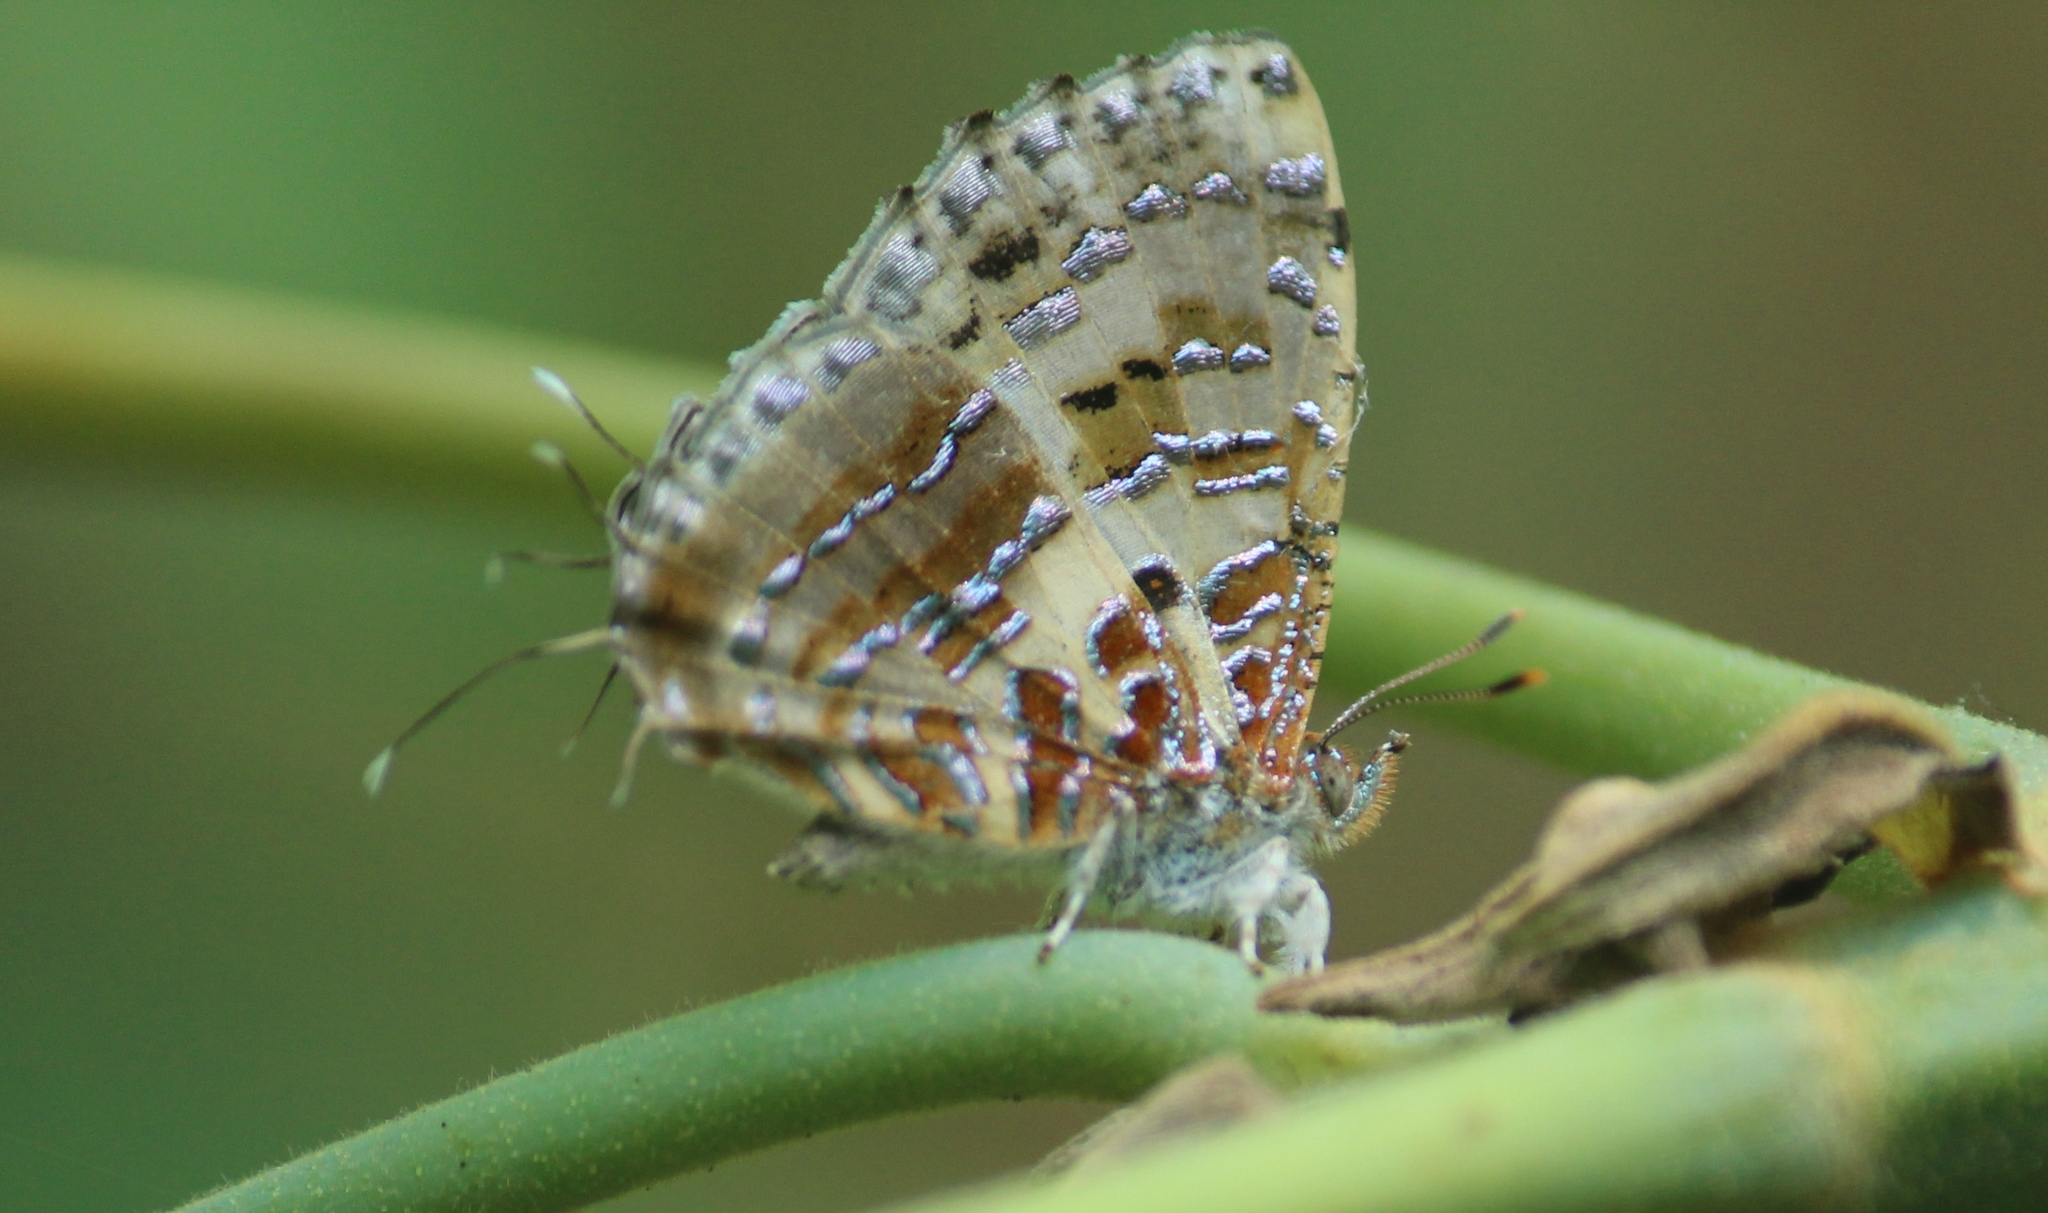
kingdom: Animalia
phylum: Arthropoda
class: Insecta
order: Lepidoptera
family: Lycaenidae
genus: Catapaecilma
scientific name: Catapaecilma major
